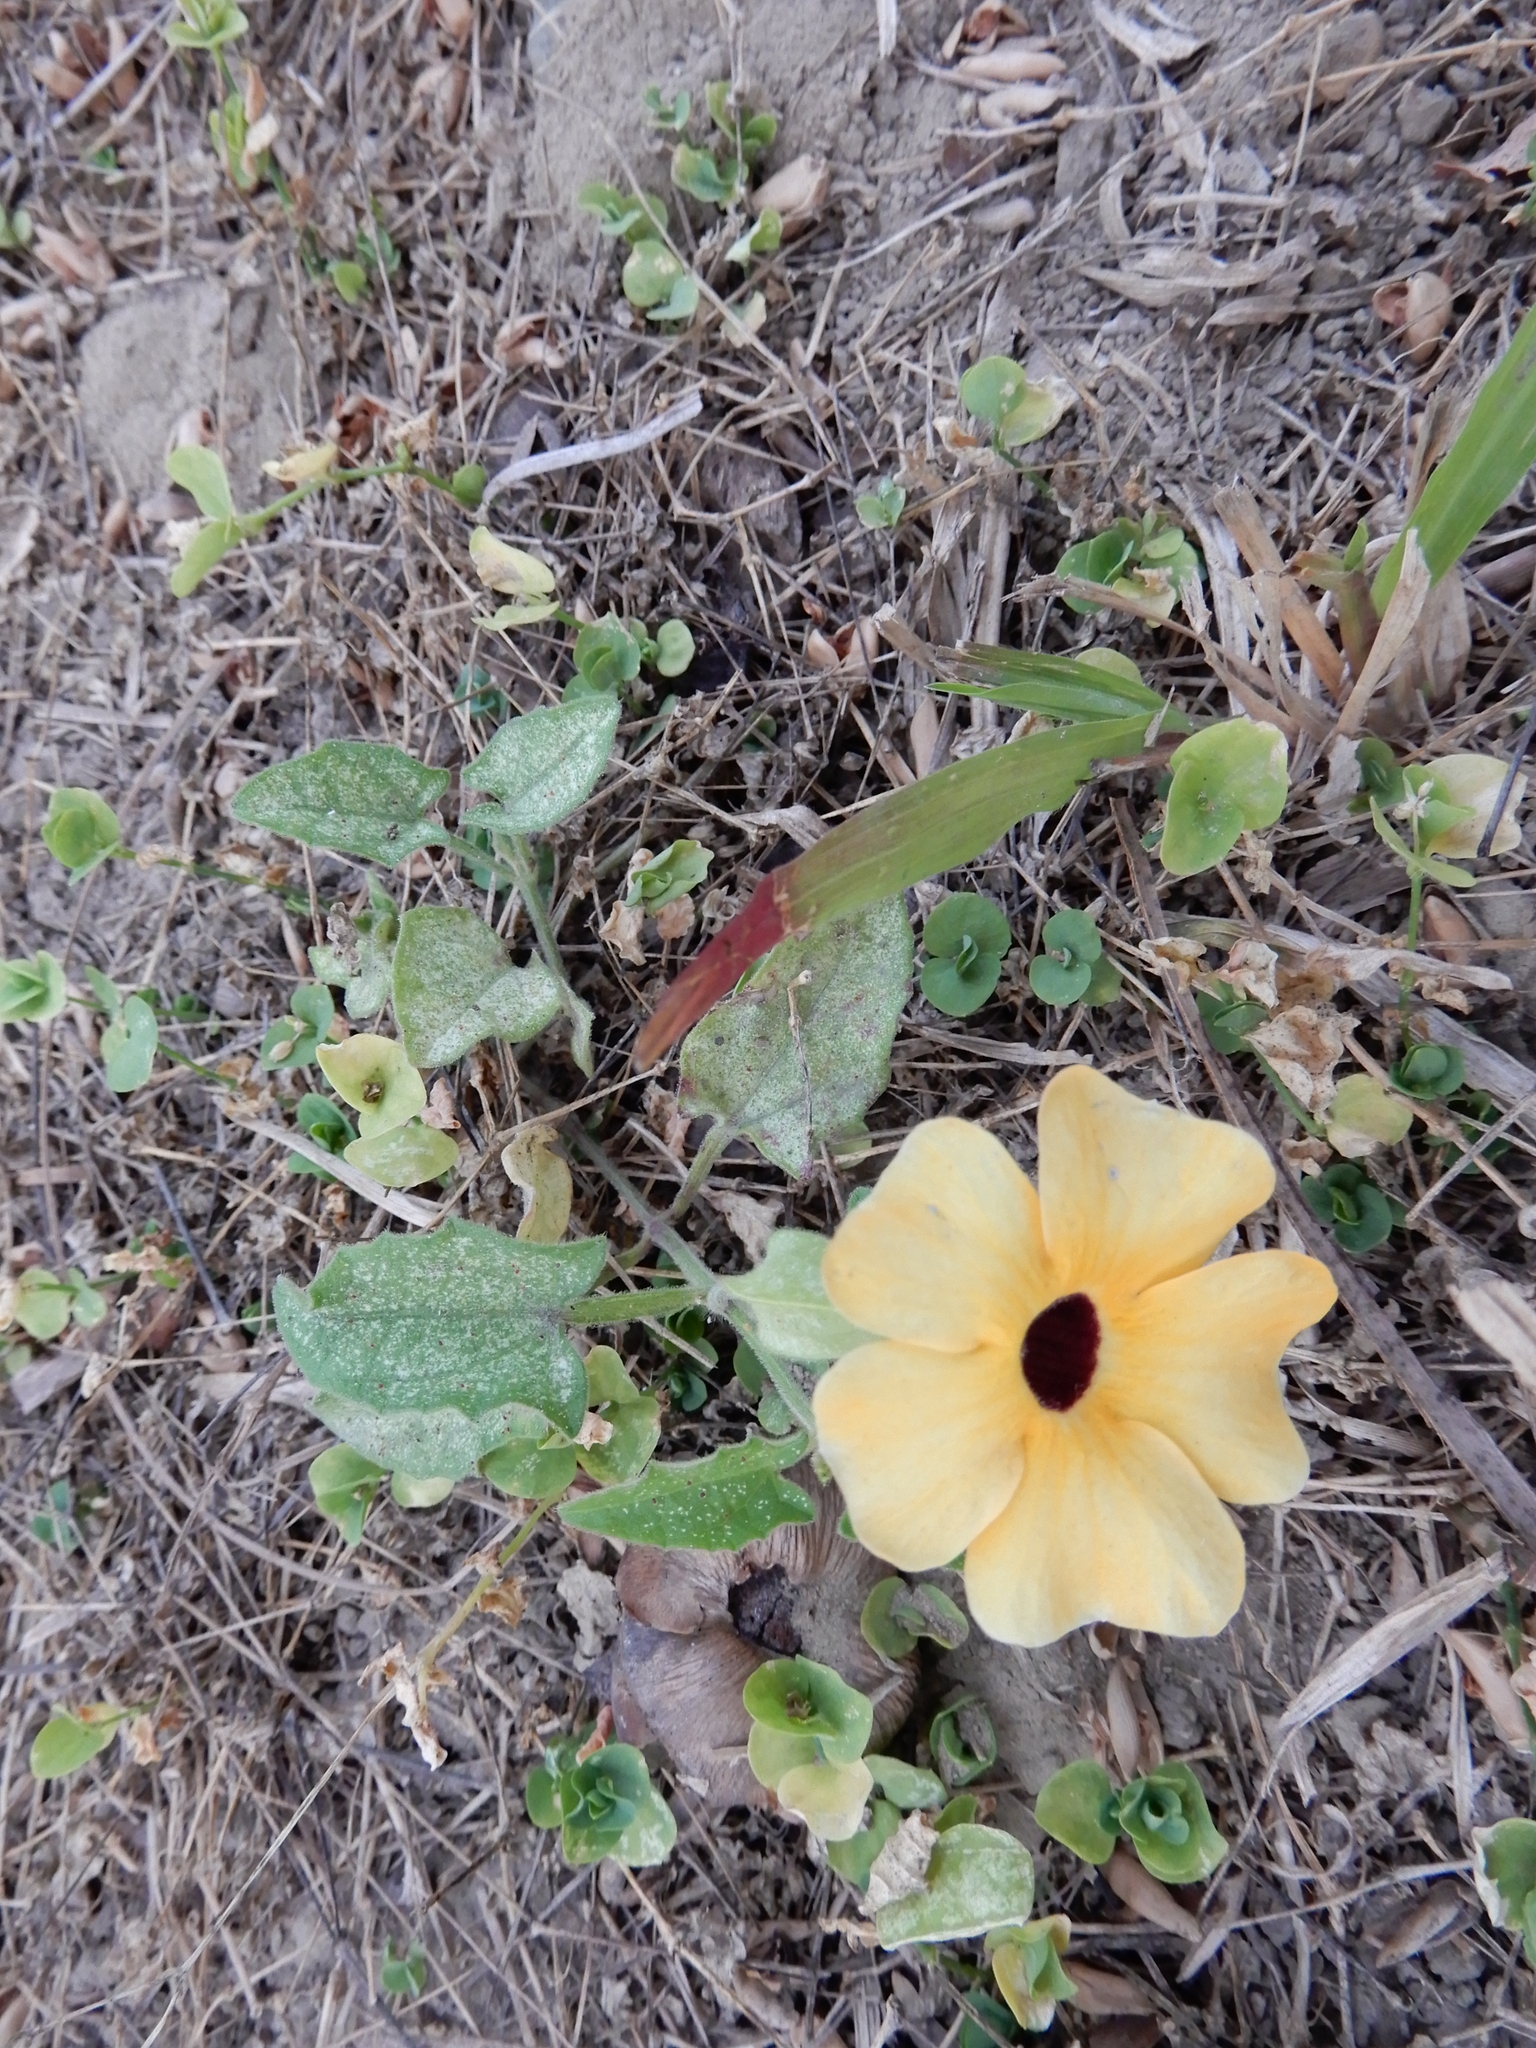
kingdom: Plantae
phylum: Tracheophyta
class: Magnoliopsida
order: Lamiales
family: Acanthaceae
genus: Thunbergia
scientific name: Thunbergia alata
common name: Blackeyed susan vine
